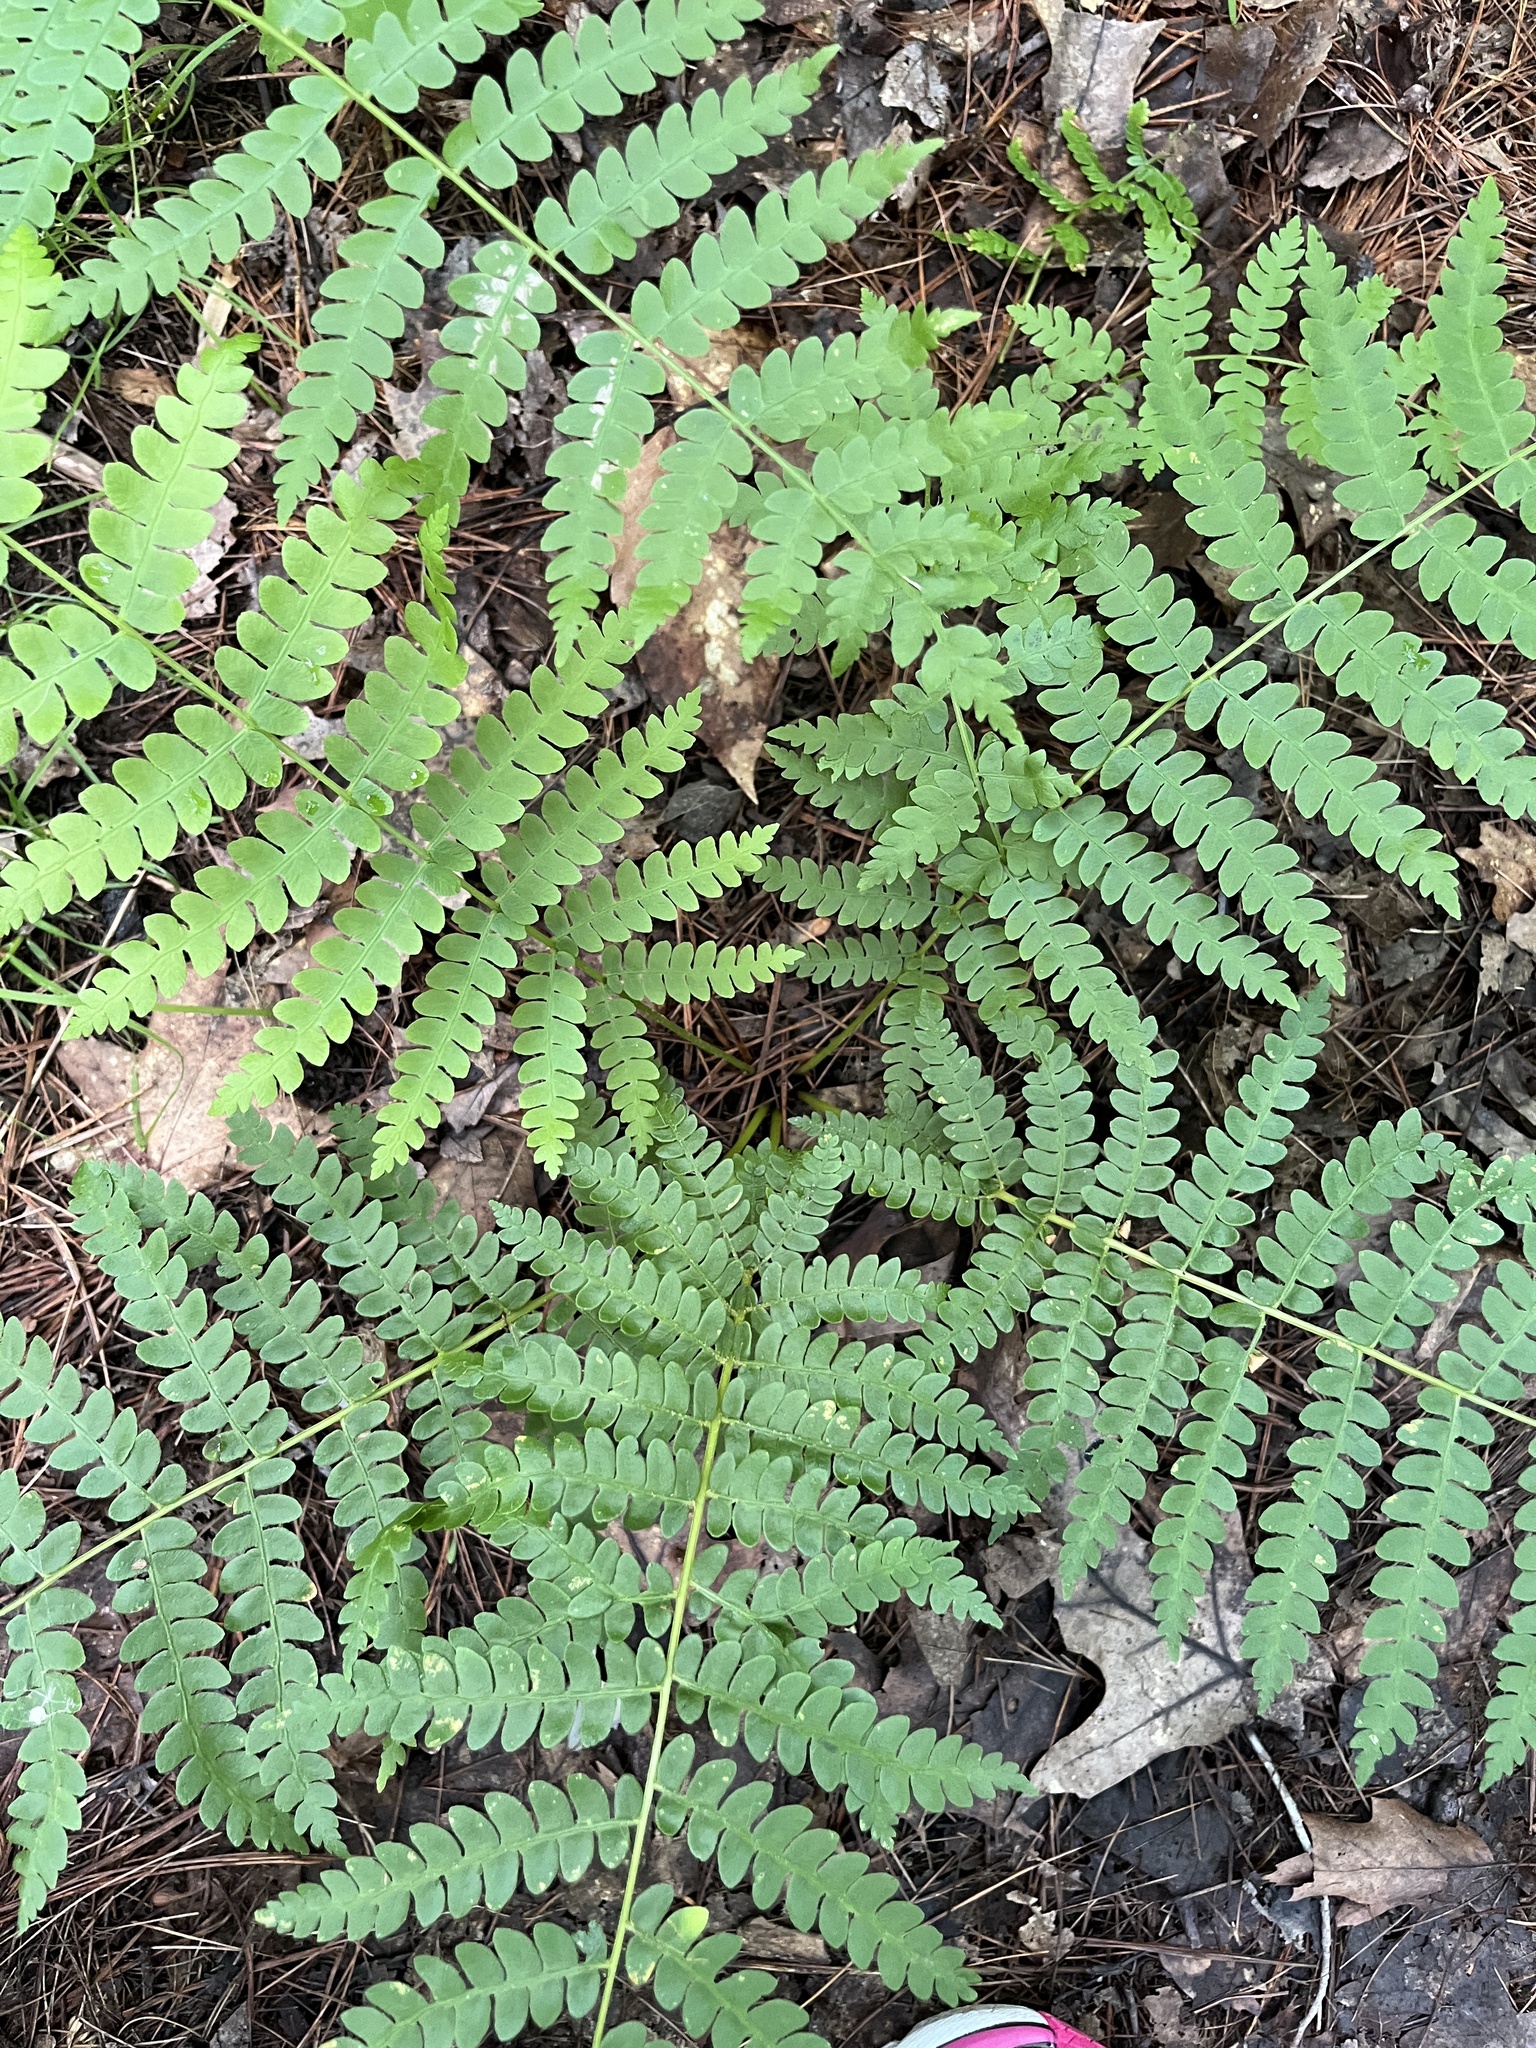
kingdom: Plantae
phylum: Tracheophyta
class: Polypodiopsida
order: Osmundales
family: Osmundaceae
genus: Osmundastrum
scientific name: Osmundastrum cinnamomeum
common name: Cinnamon fern
